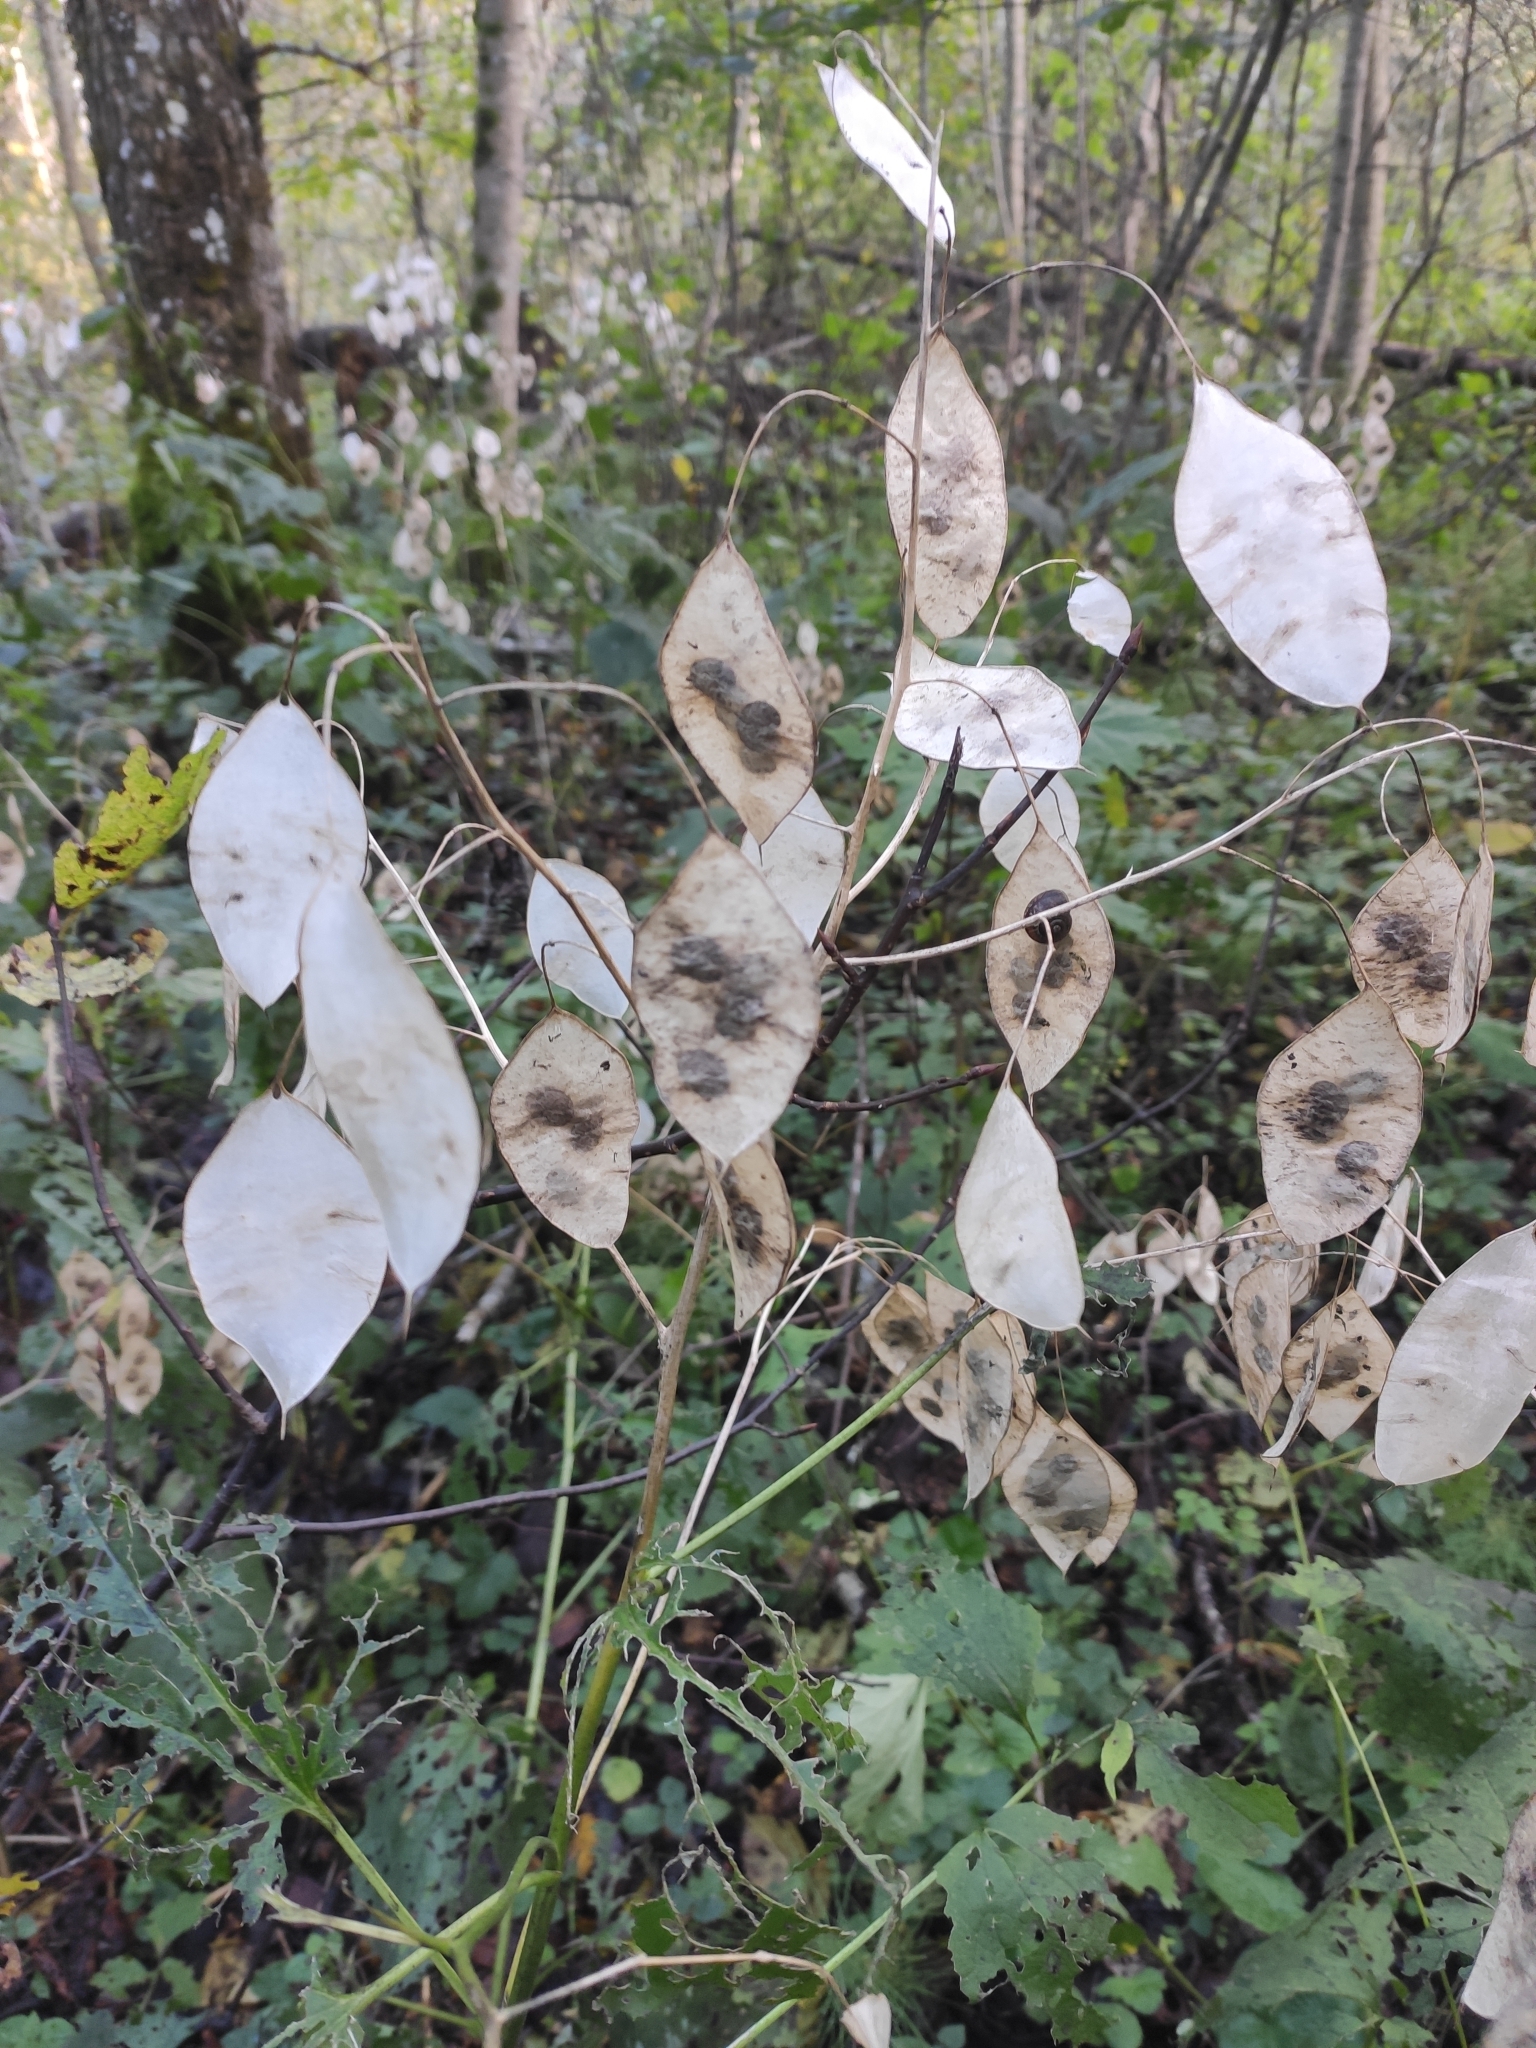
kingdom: Plantae
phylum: Tracheophyta
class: Magnoliopsida
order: Brassicales
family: Brassicaceae
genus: Lunaria
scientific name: Lunaria rediviva
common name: Perennial honesty
